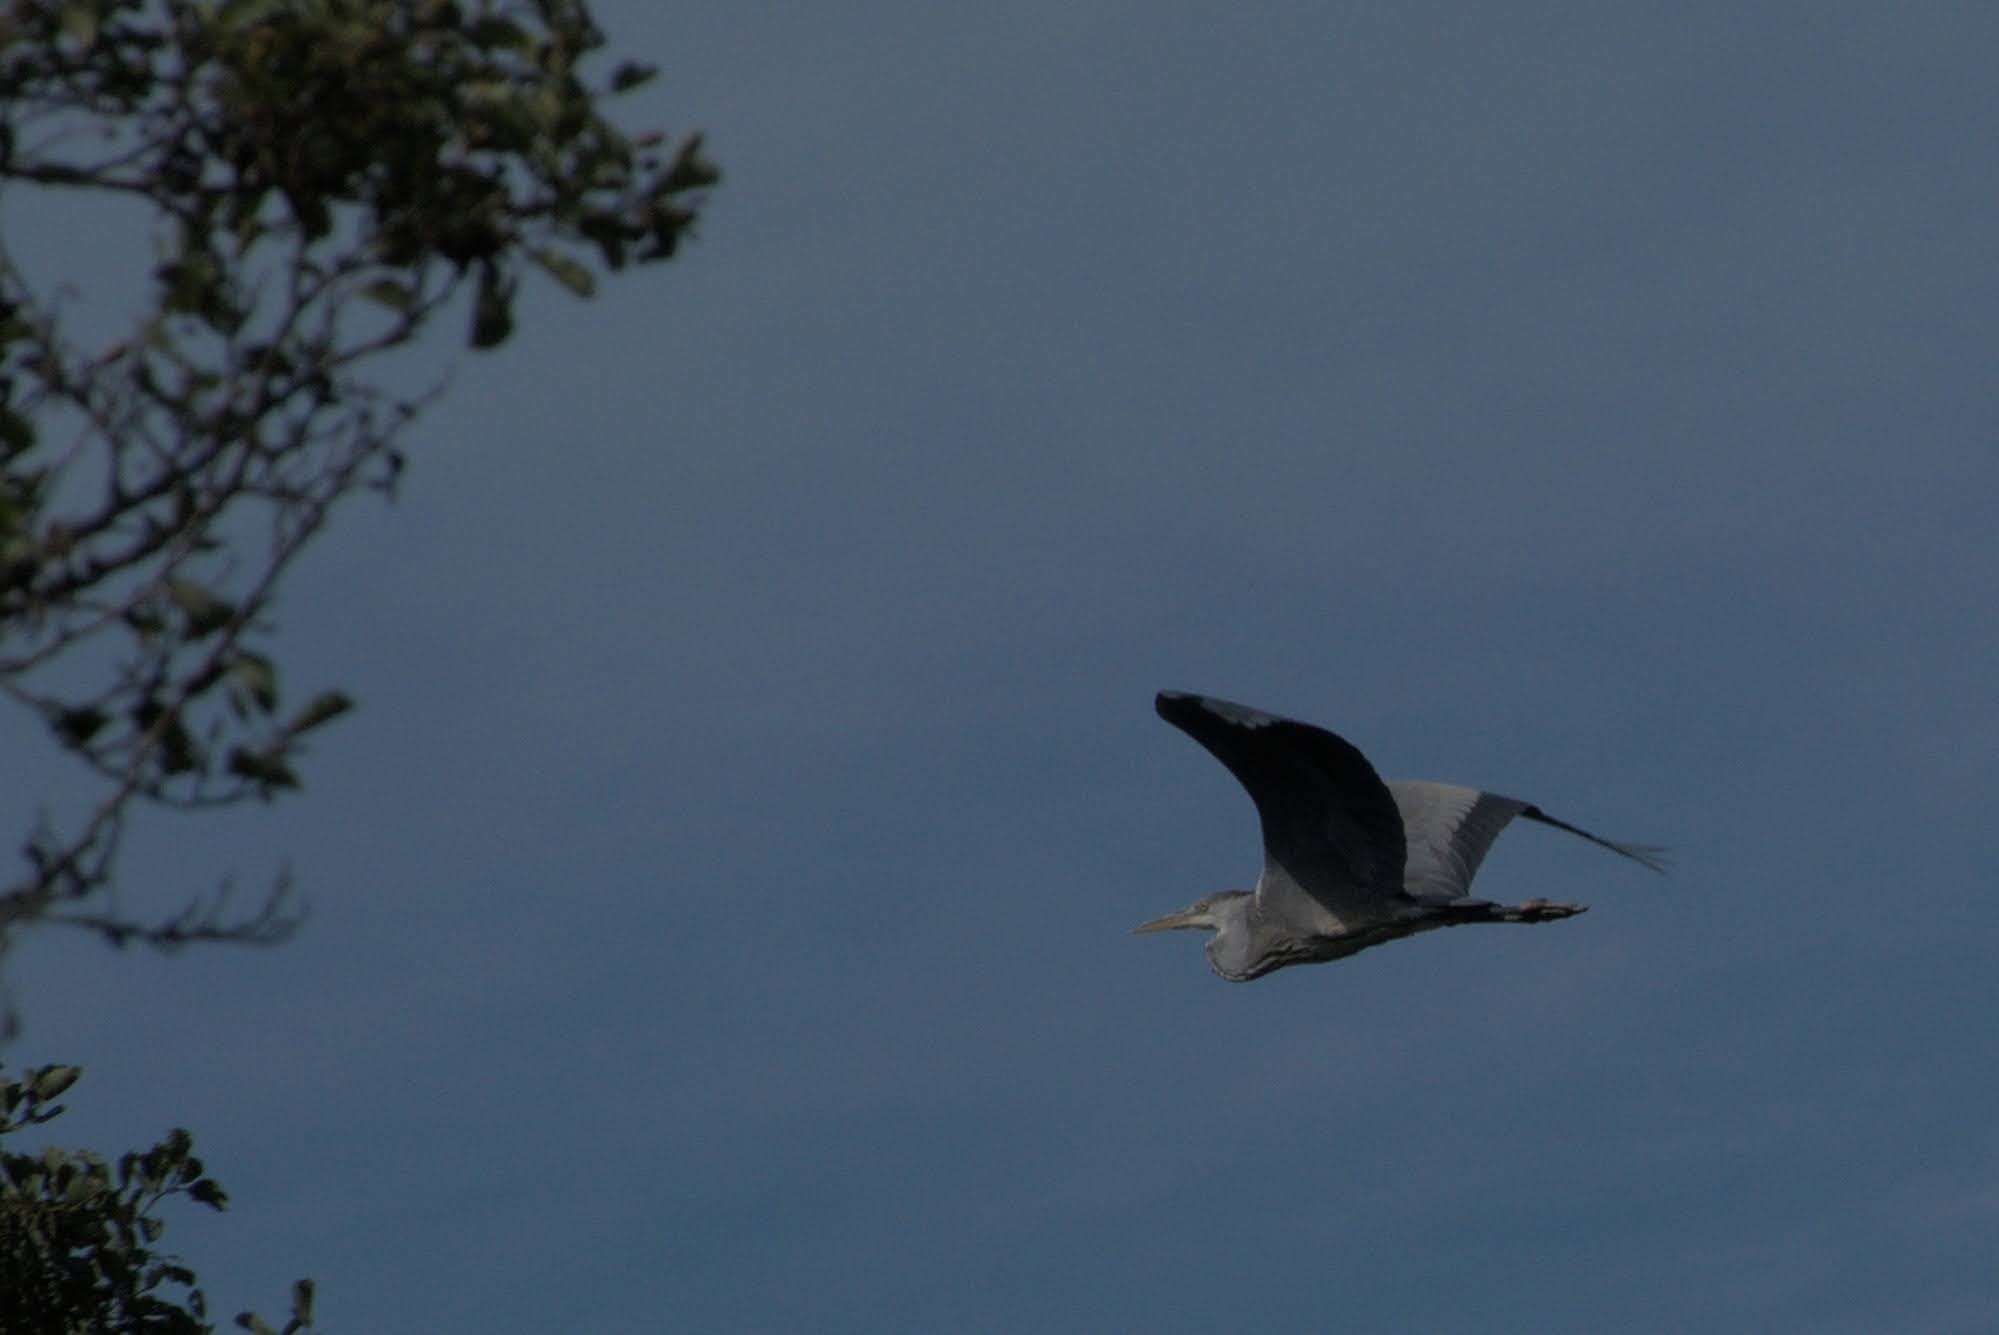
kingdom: Animalia
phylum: Chordata
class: Aves
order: Pelecaniformes
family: Ardeidae
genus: Ardea
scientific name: Ardea cinerea
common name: Grey heron
